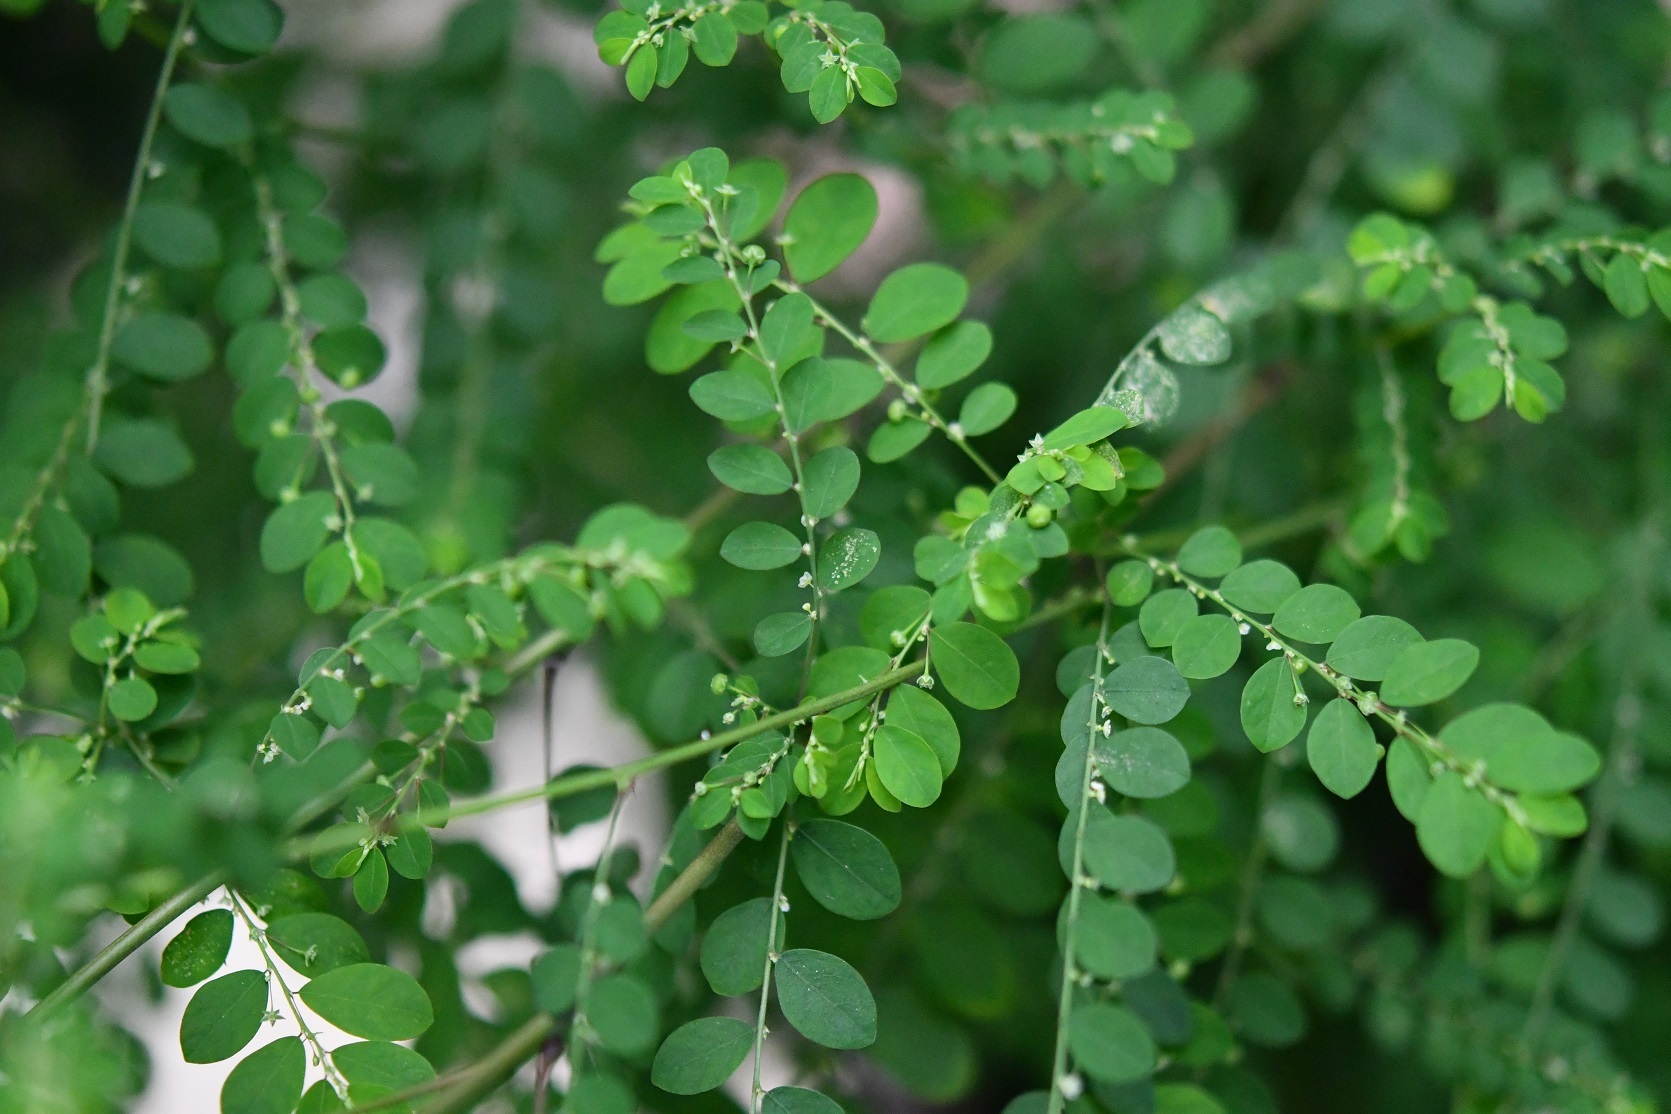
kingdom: Plantae
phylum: Tracheophyta
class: Magnoliopsida
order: Malpighiales
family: Phyllanthaceae
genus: Phyllanthus
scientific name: Phyllanthus tenellus
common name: Mascarene island leaf-flower
